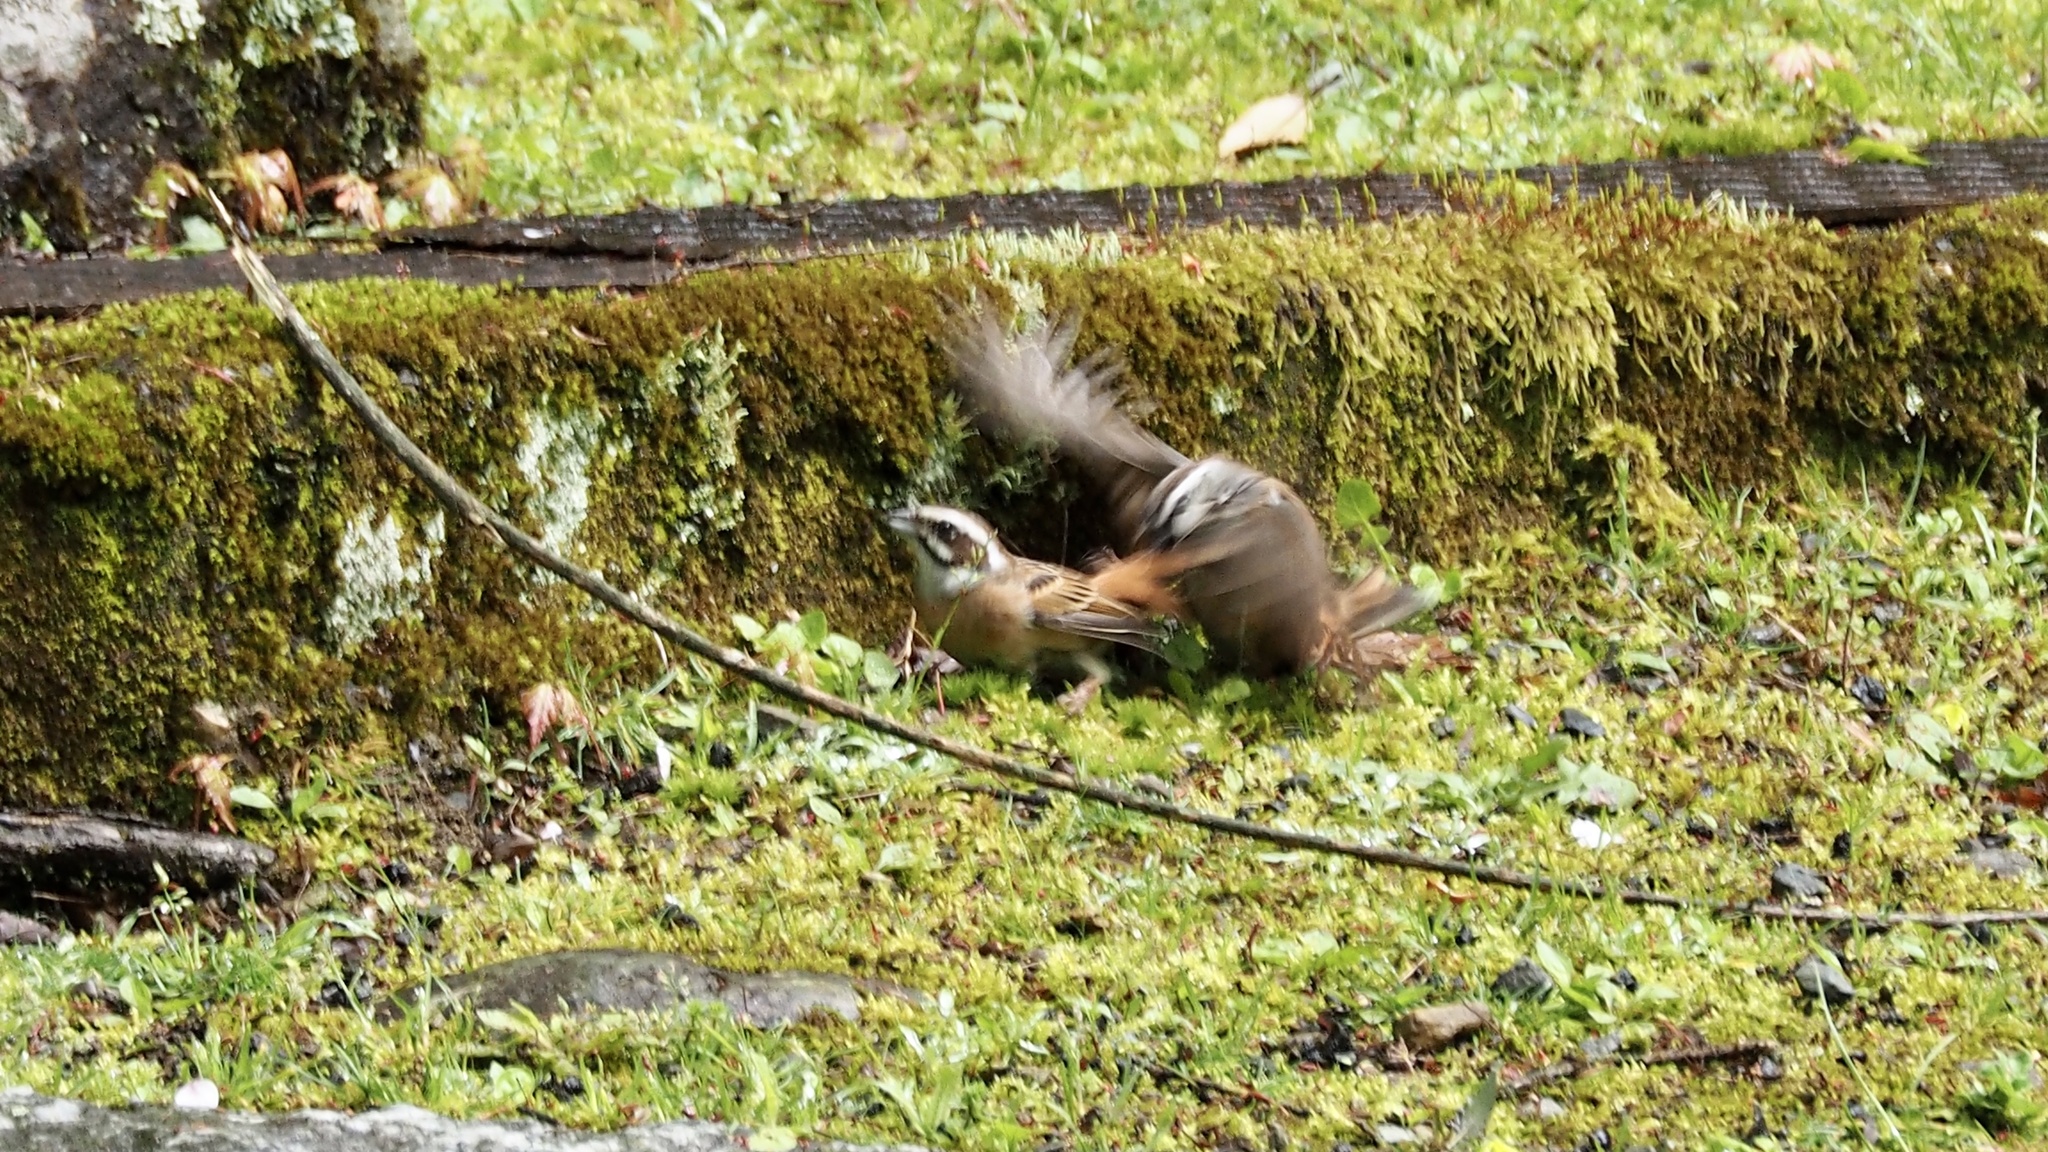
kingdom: Animalia
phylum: Chordata
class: Aves
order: Passeriformes
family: Emberizidae
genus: Emberiza
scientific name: Emberiza cioides
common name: Meadow bunting
